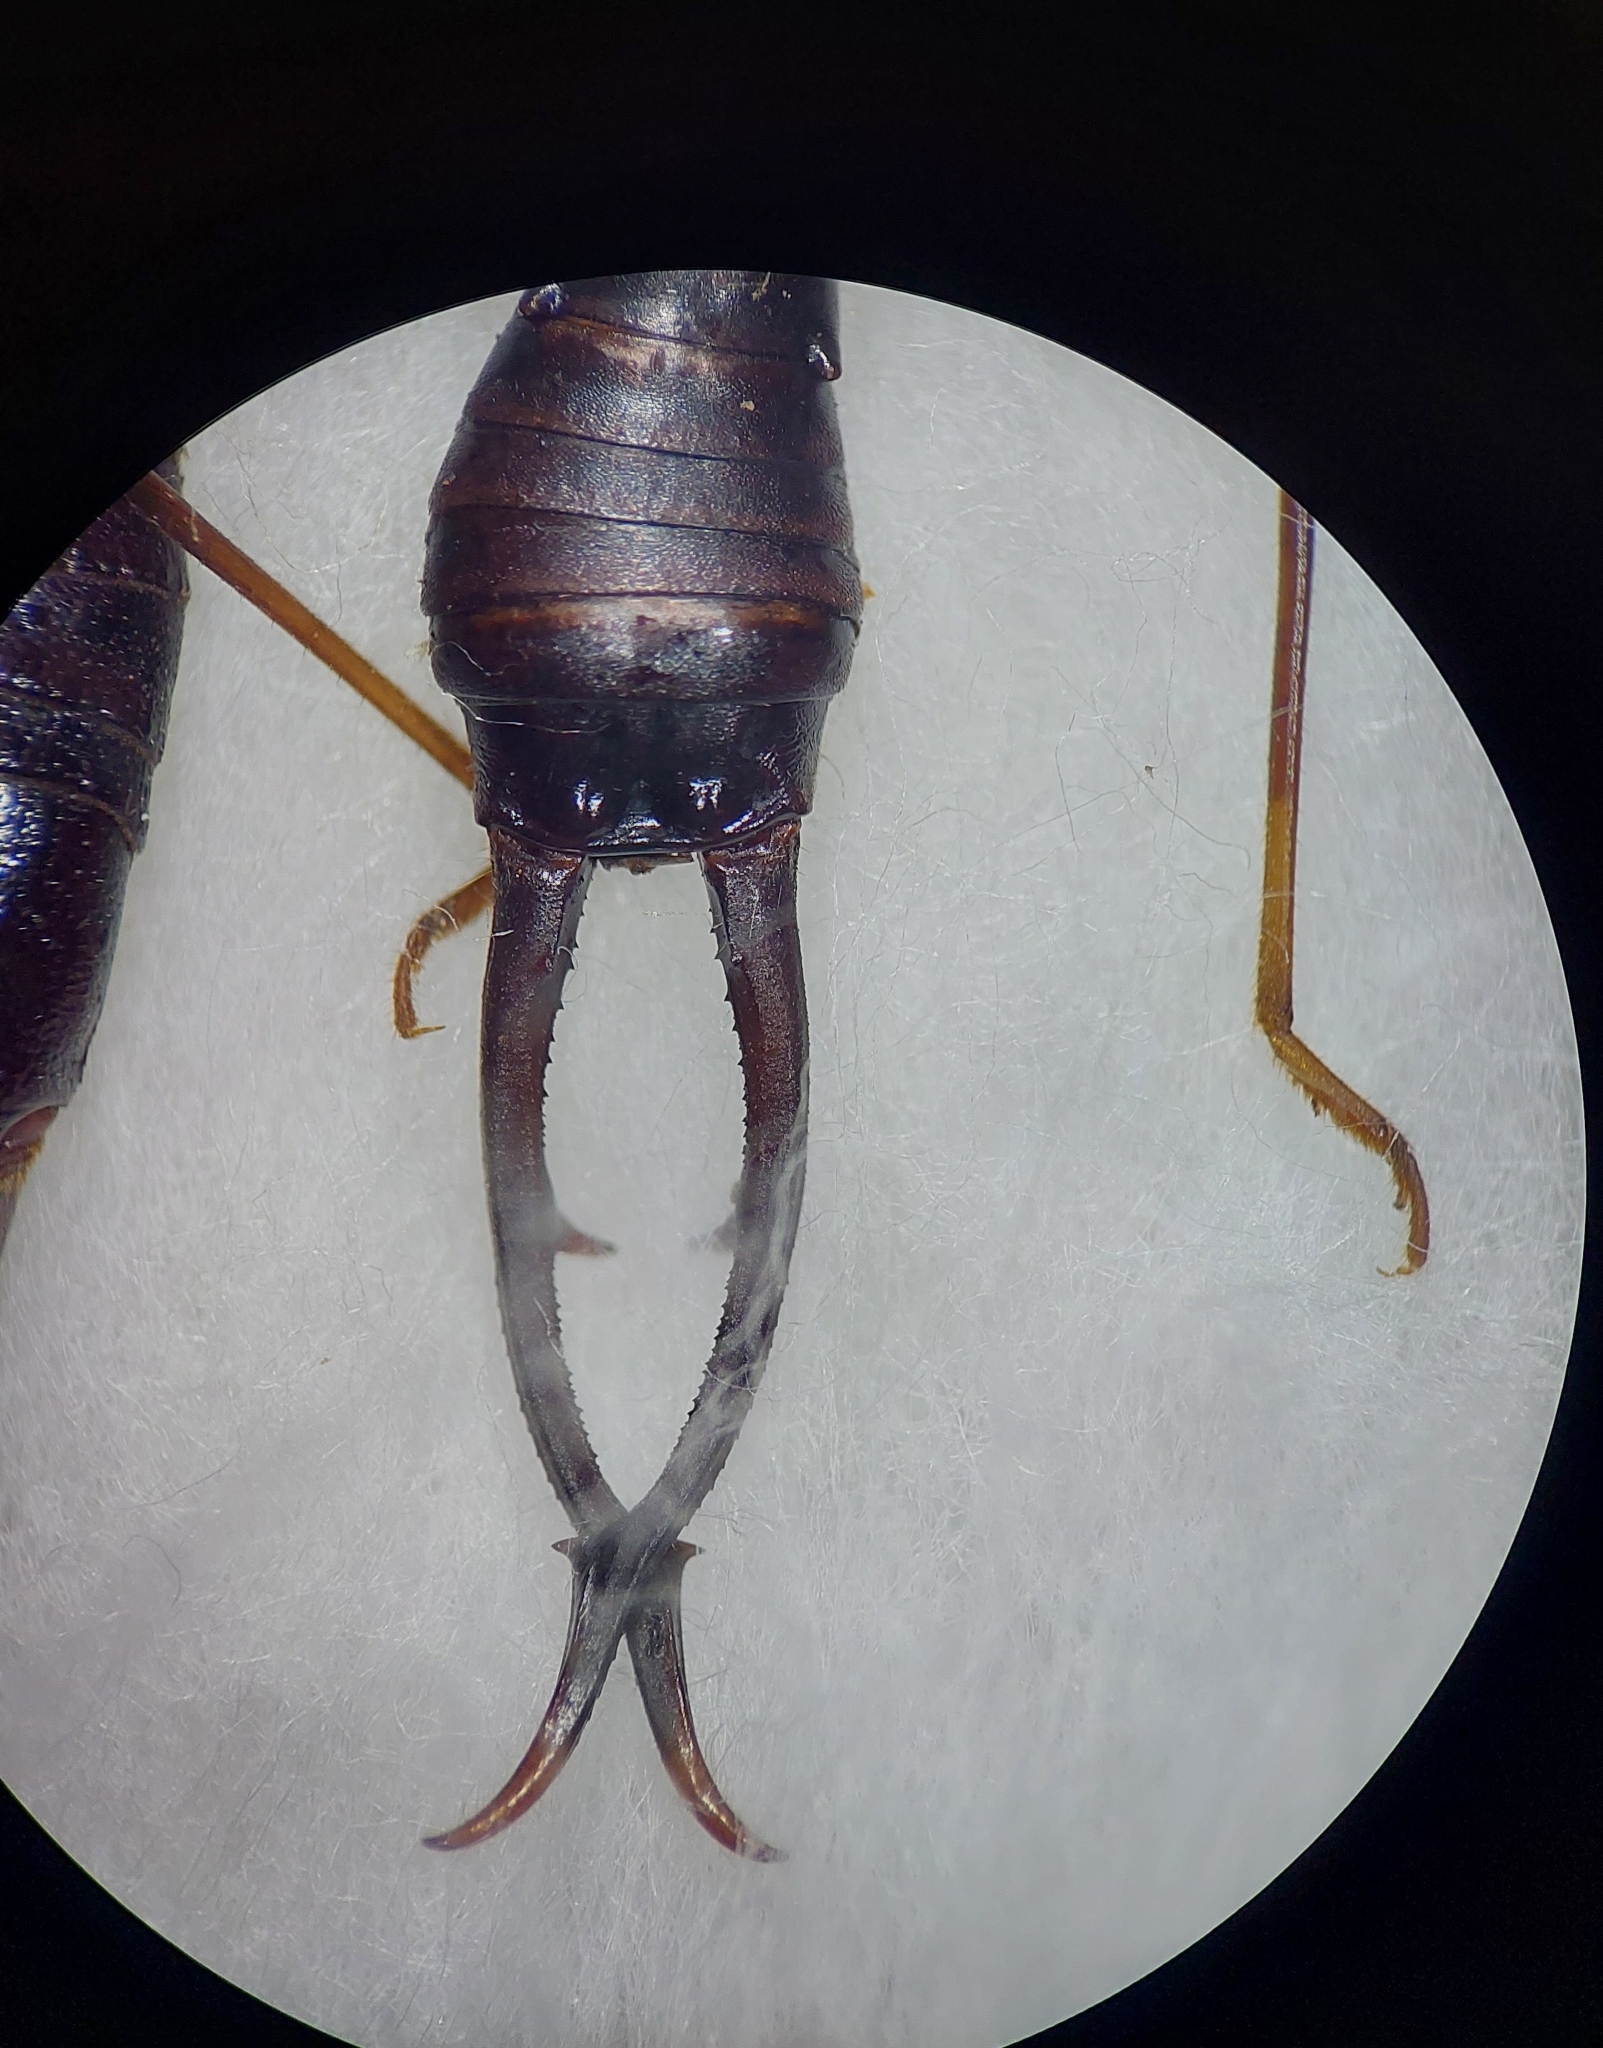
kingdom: Animalia
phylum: Arthropoda
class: Insecta
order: Dermaptera
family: Forficulidae
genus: Opisthocosmia
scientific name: Opisthocosmia centurio
